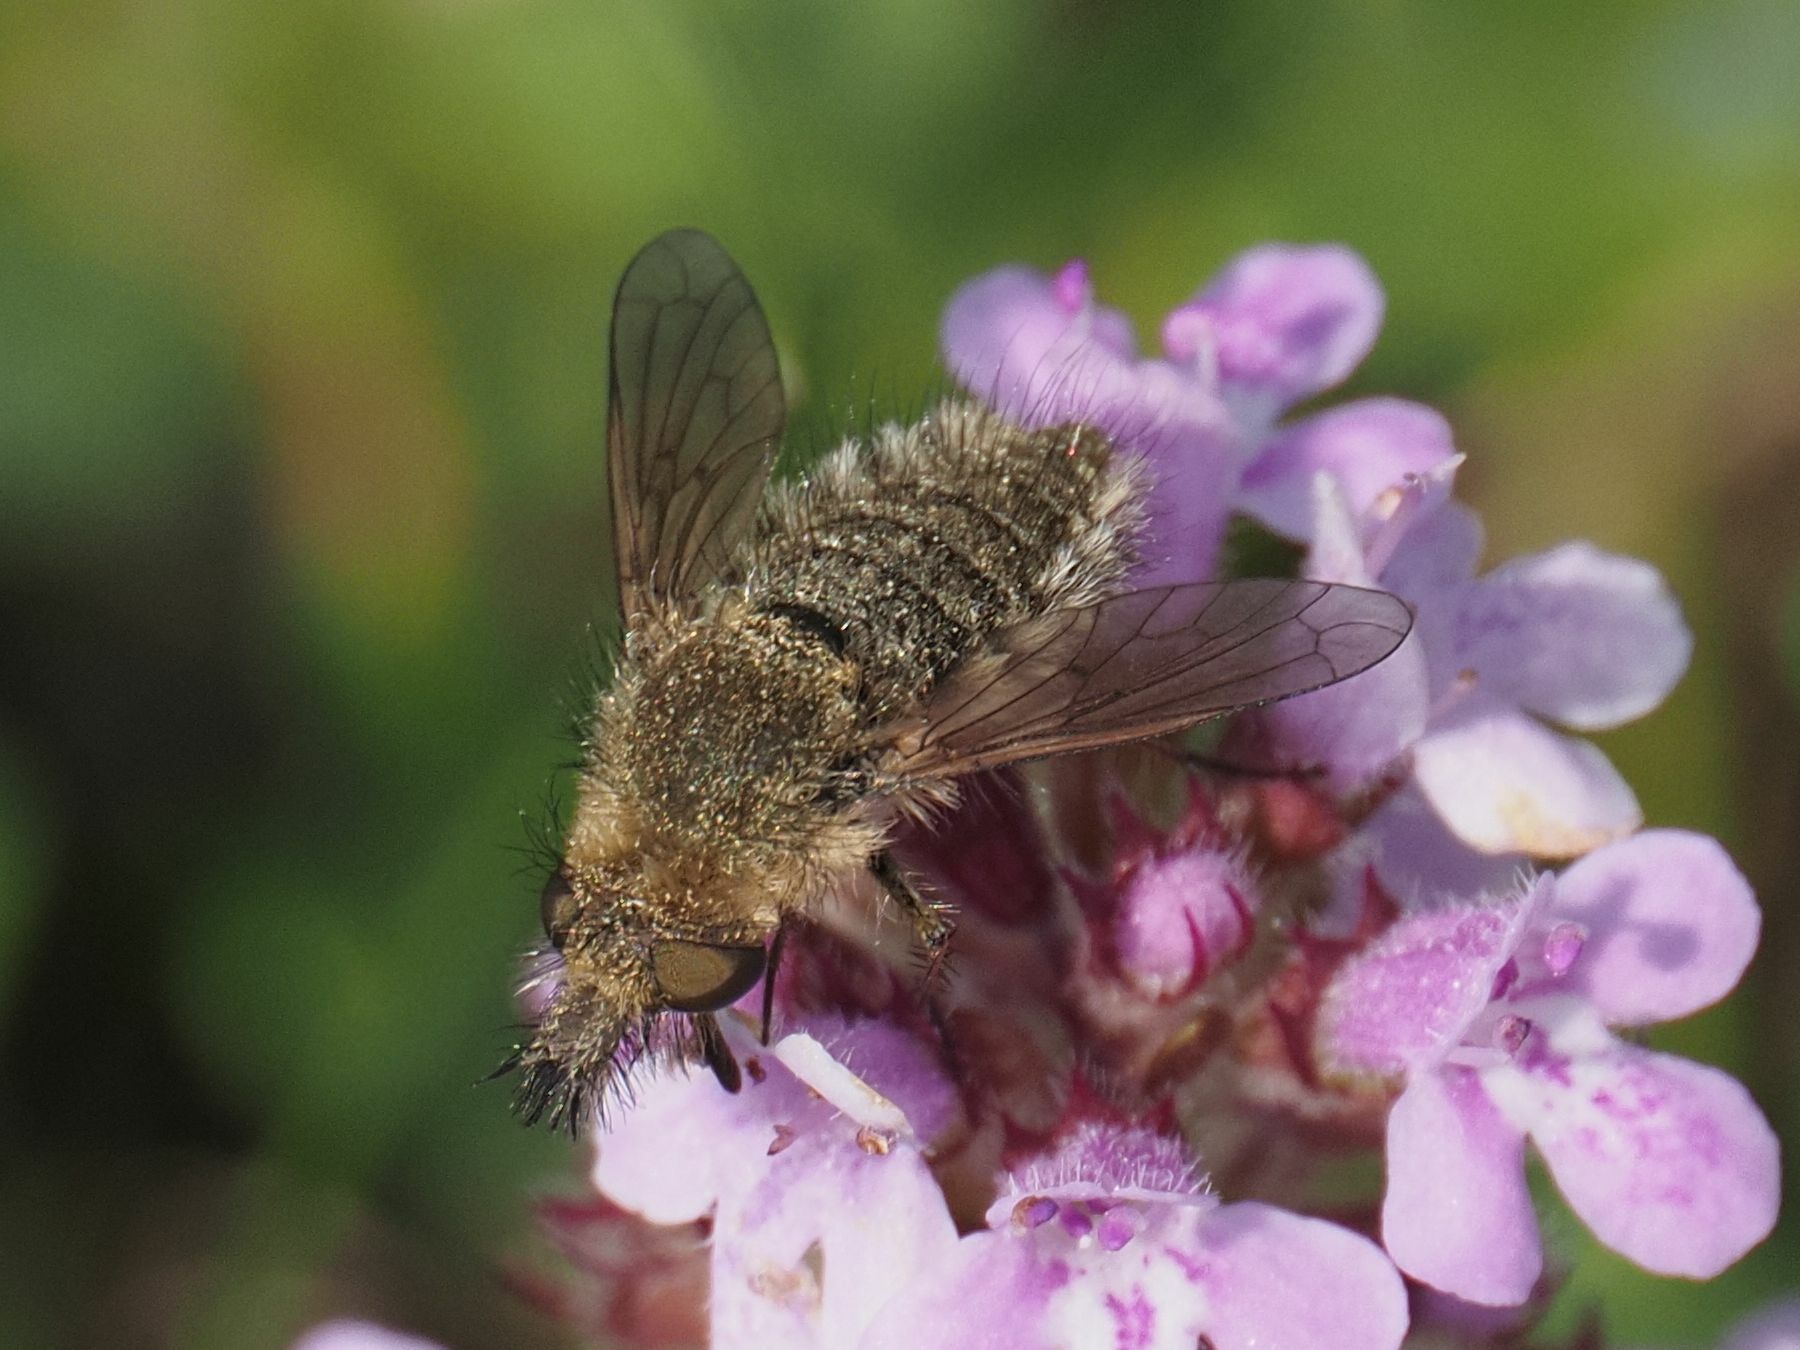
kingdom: Animalia
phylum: Arthropoda
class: Insecta
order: Diptera
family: Bombyliidae
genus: Conophorus
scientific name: Conophorus virescens
